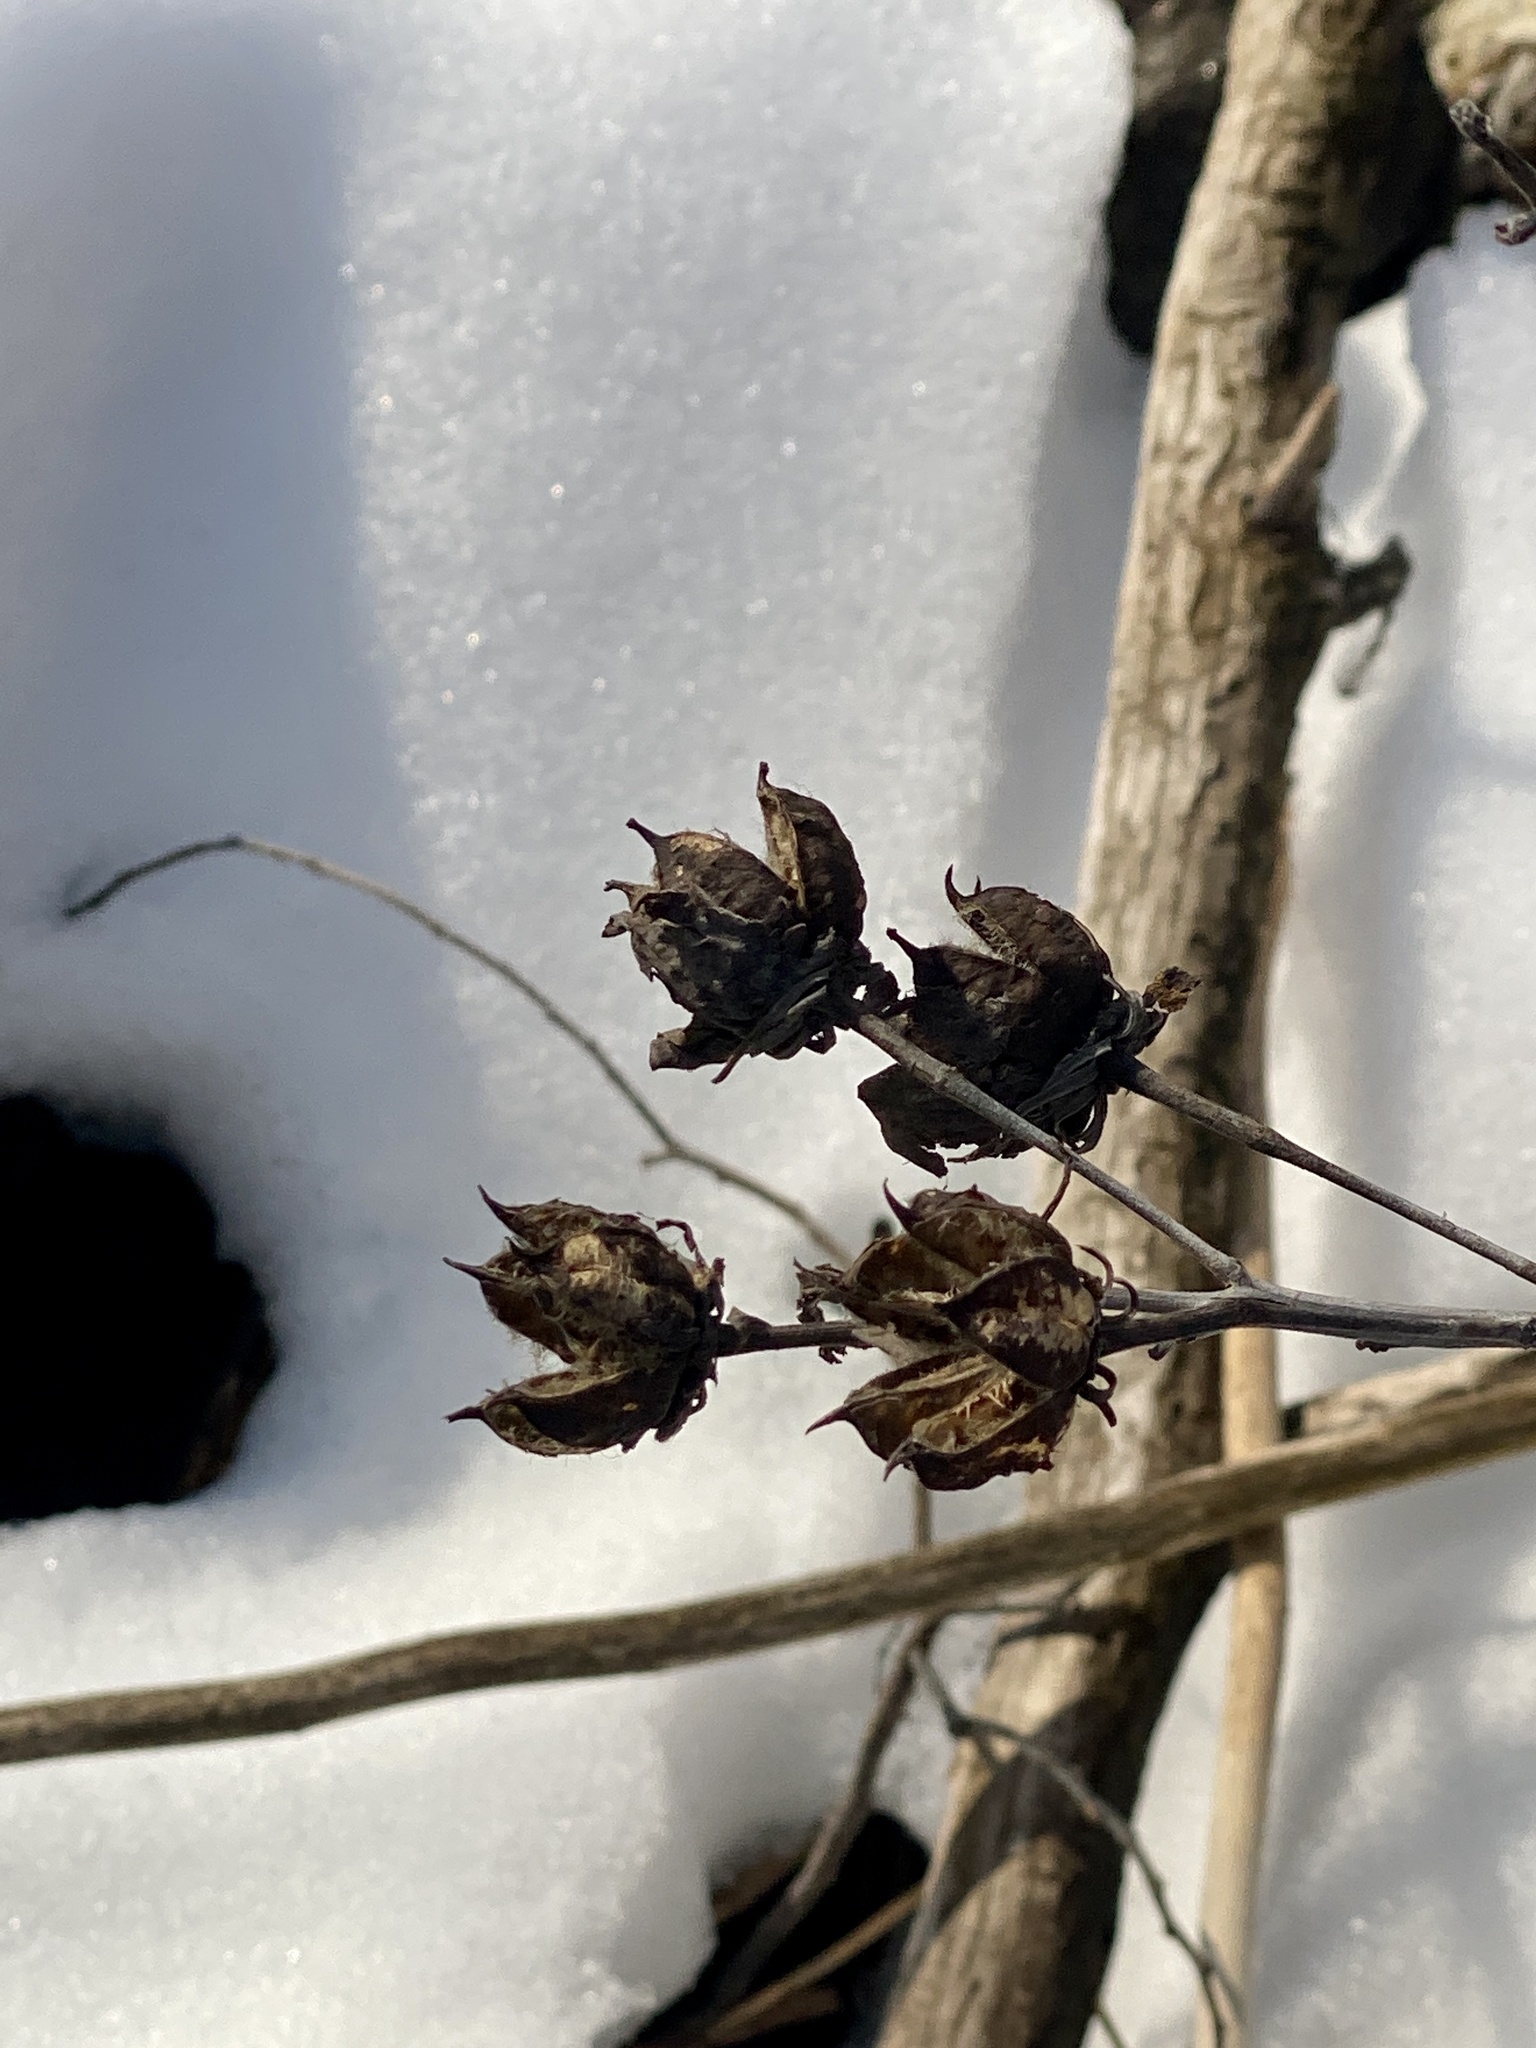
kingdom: Plantae
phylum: Tracheophyta
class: Magnoliopsida
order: Malvales
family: Malvaceae
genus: Hibiscus
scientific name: Hibiscus moscheutos
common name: Common rose-mallow
